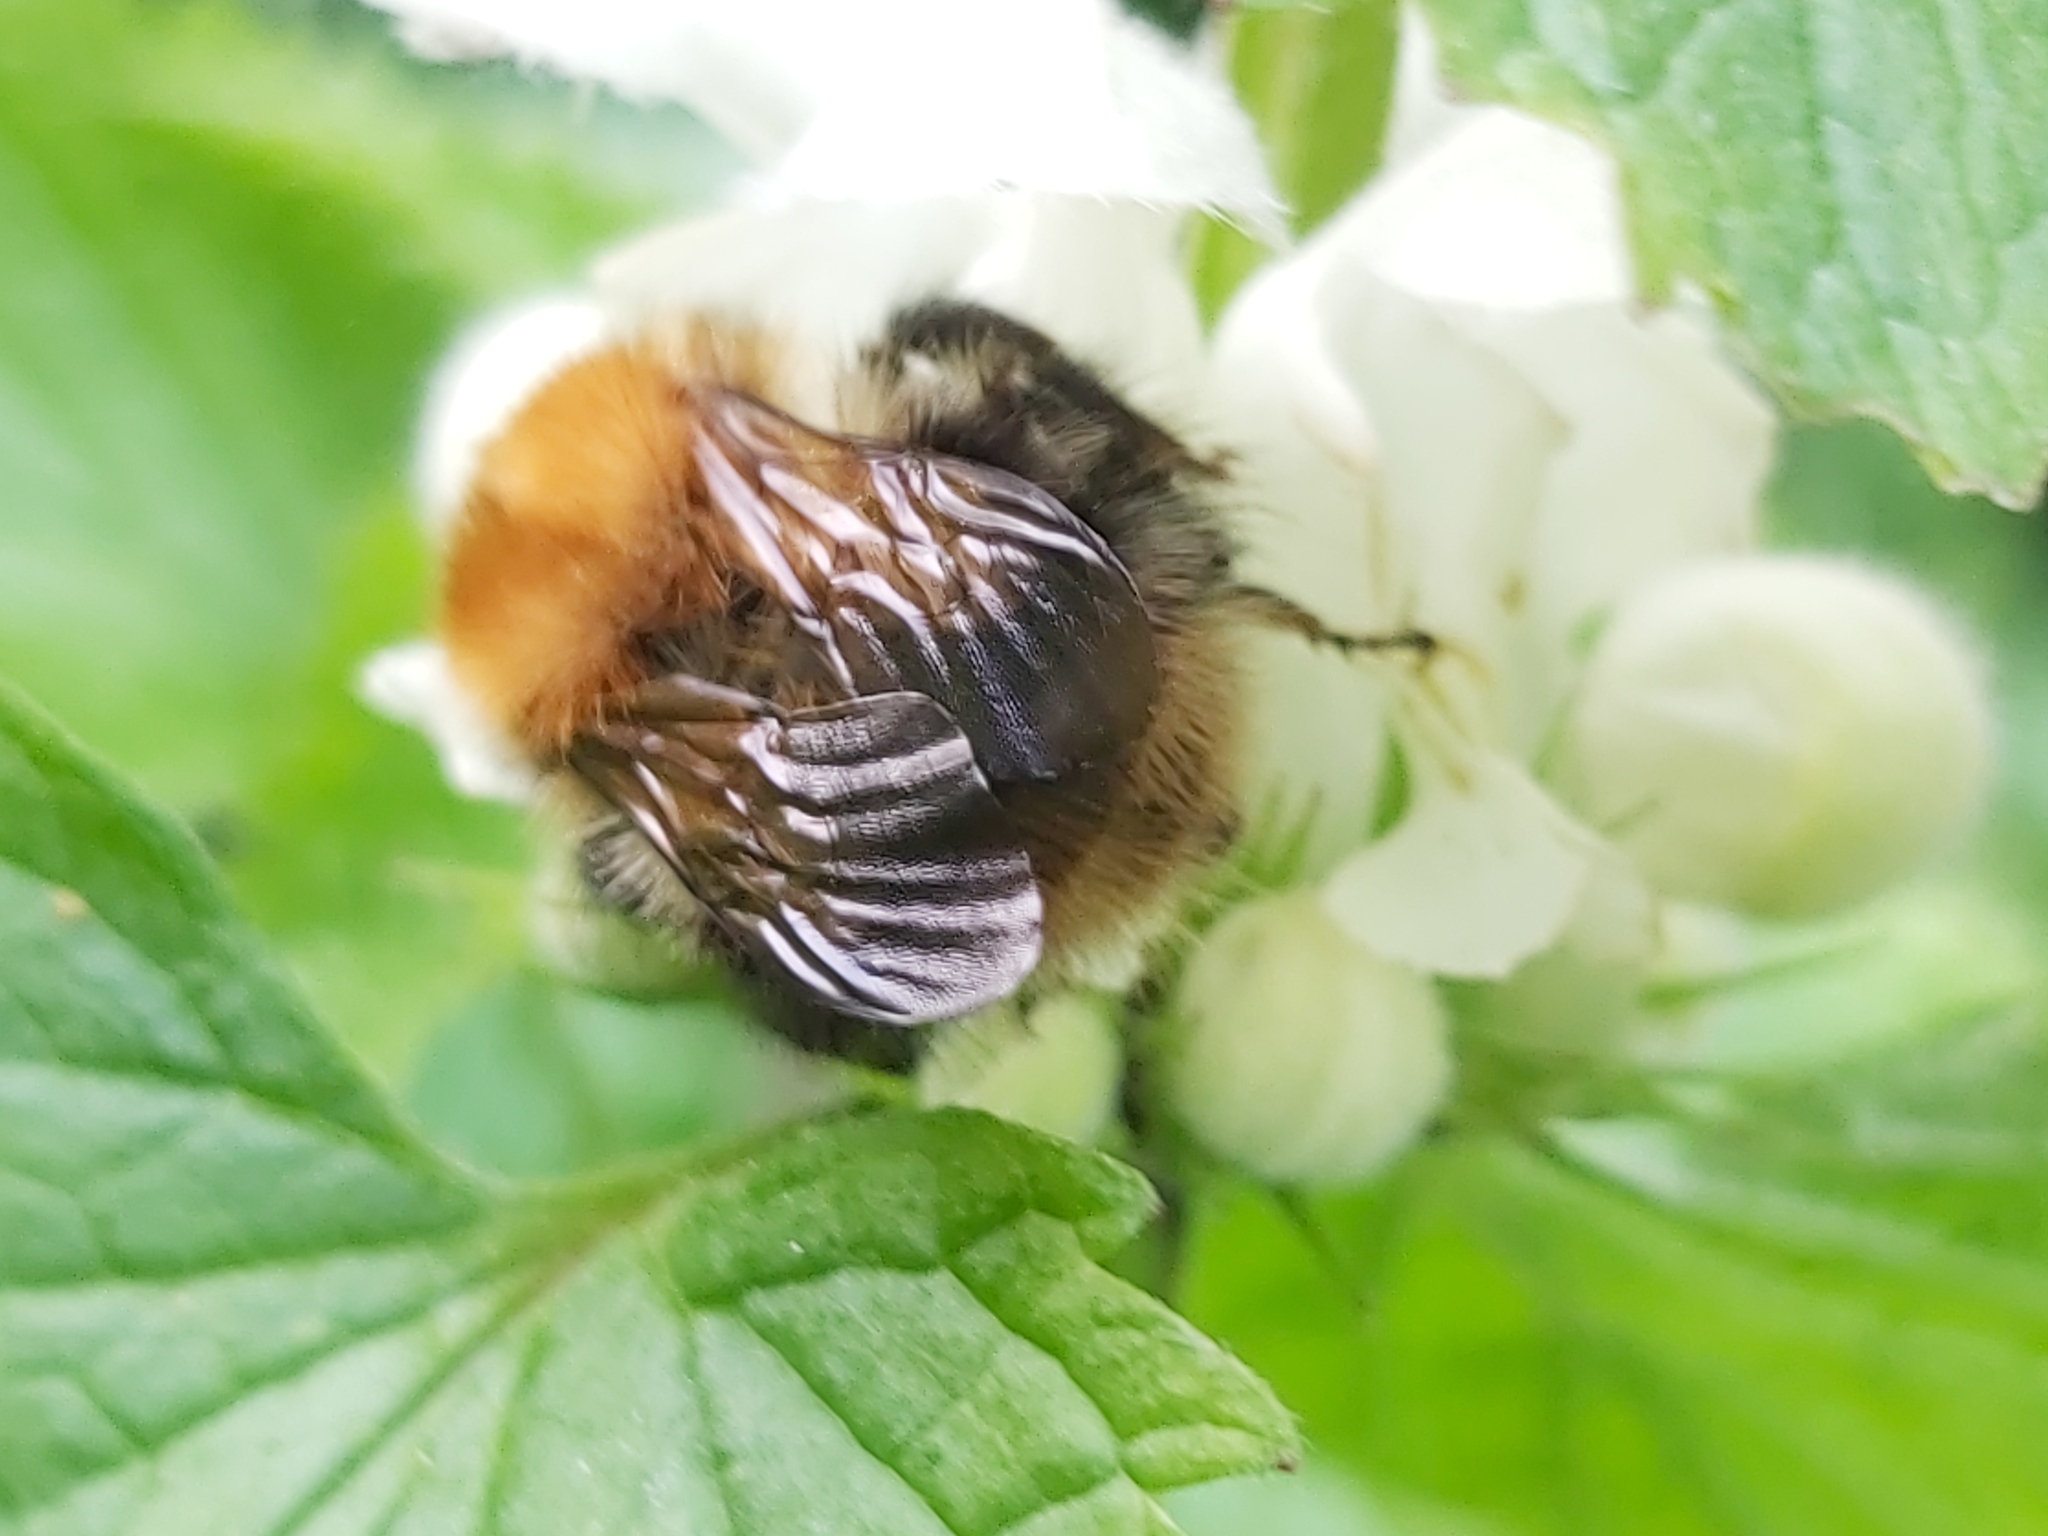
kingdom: Animalia
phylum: Arthropoda
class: Insecta
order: Hymenoptera
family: Apidae
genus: Bombus
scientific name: Bombus pascuorum
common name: Common carder bee
